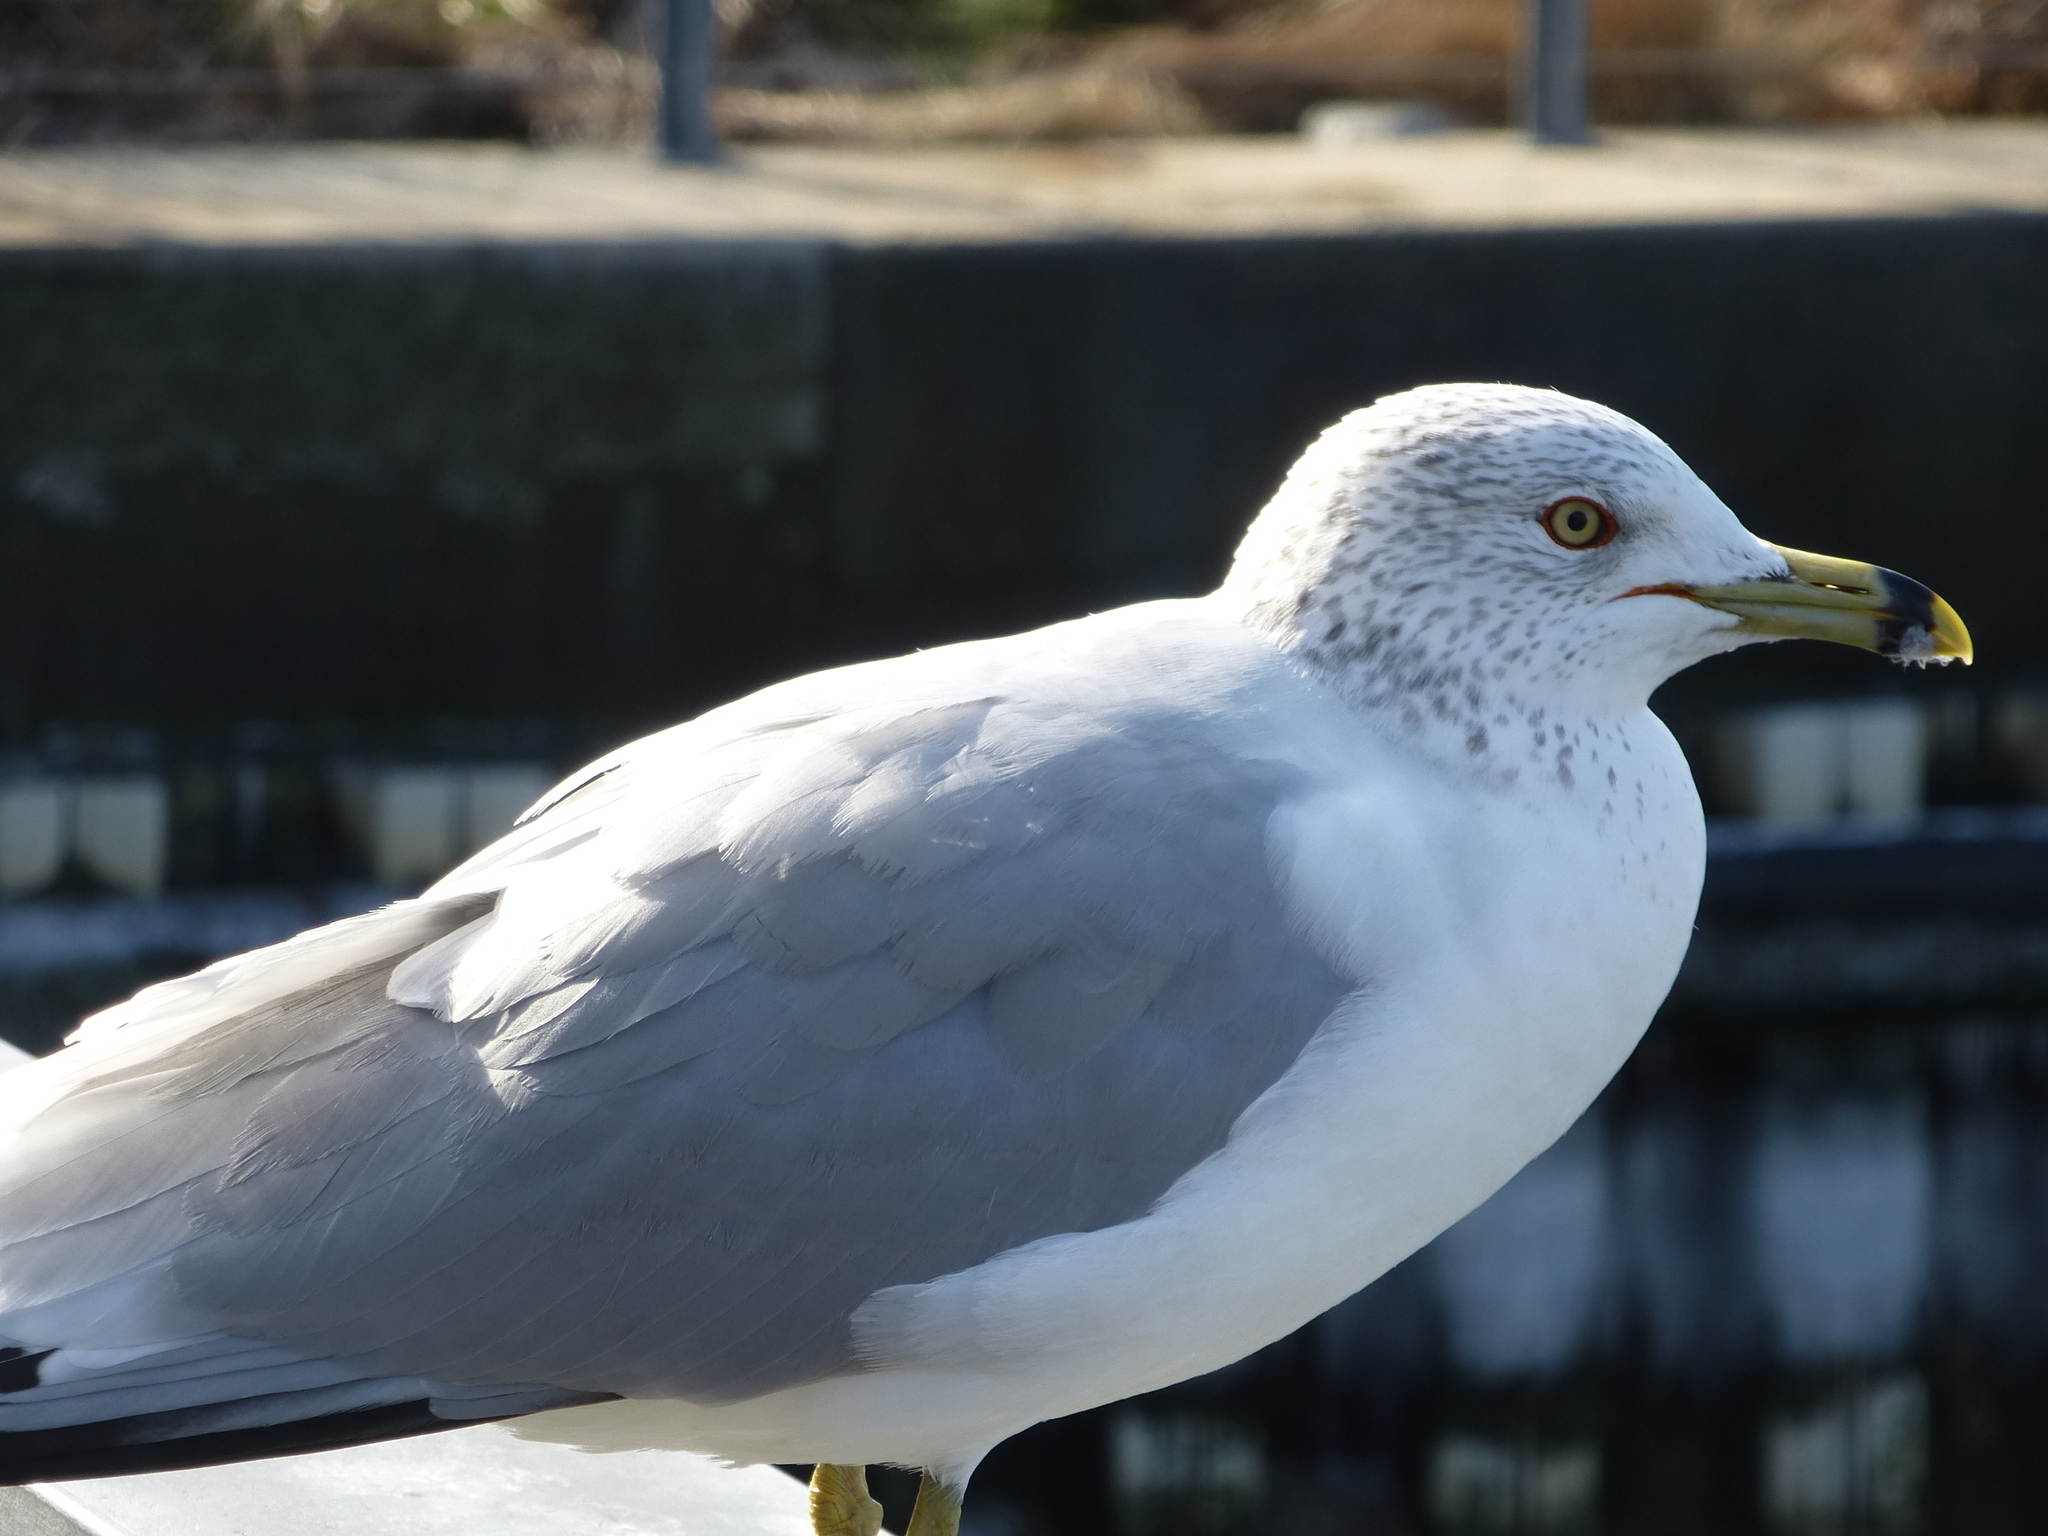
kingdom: Animalia
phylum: Chordata
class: Aves
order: Charadriiformes
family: Laridae
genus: Larus
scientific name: Larus delawarensis
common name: Ring-billed gull
